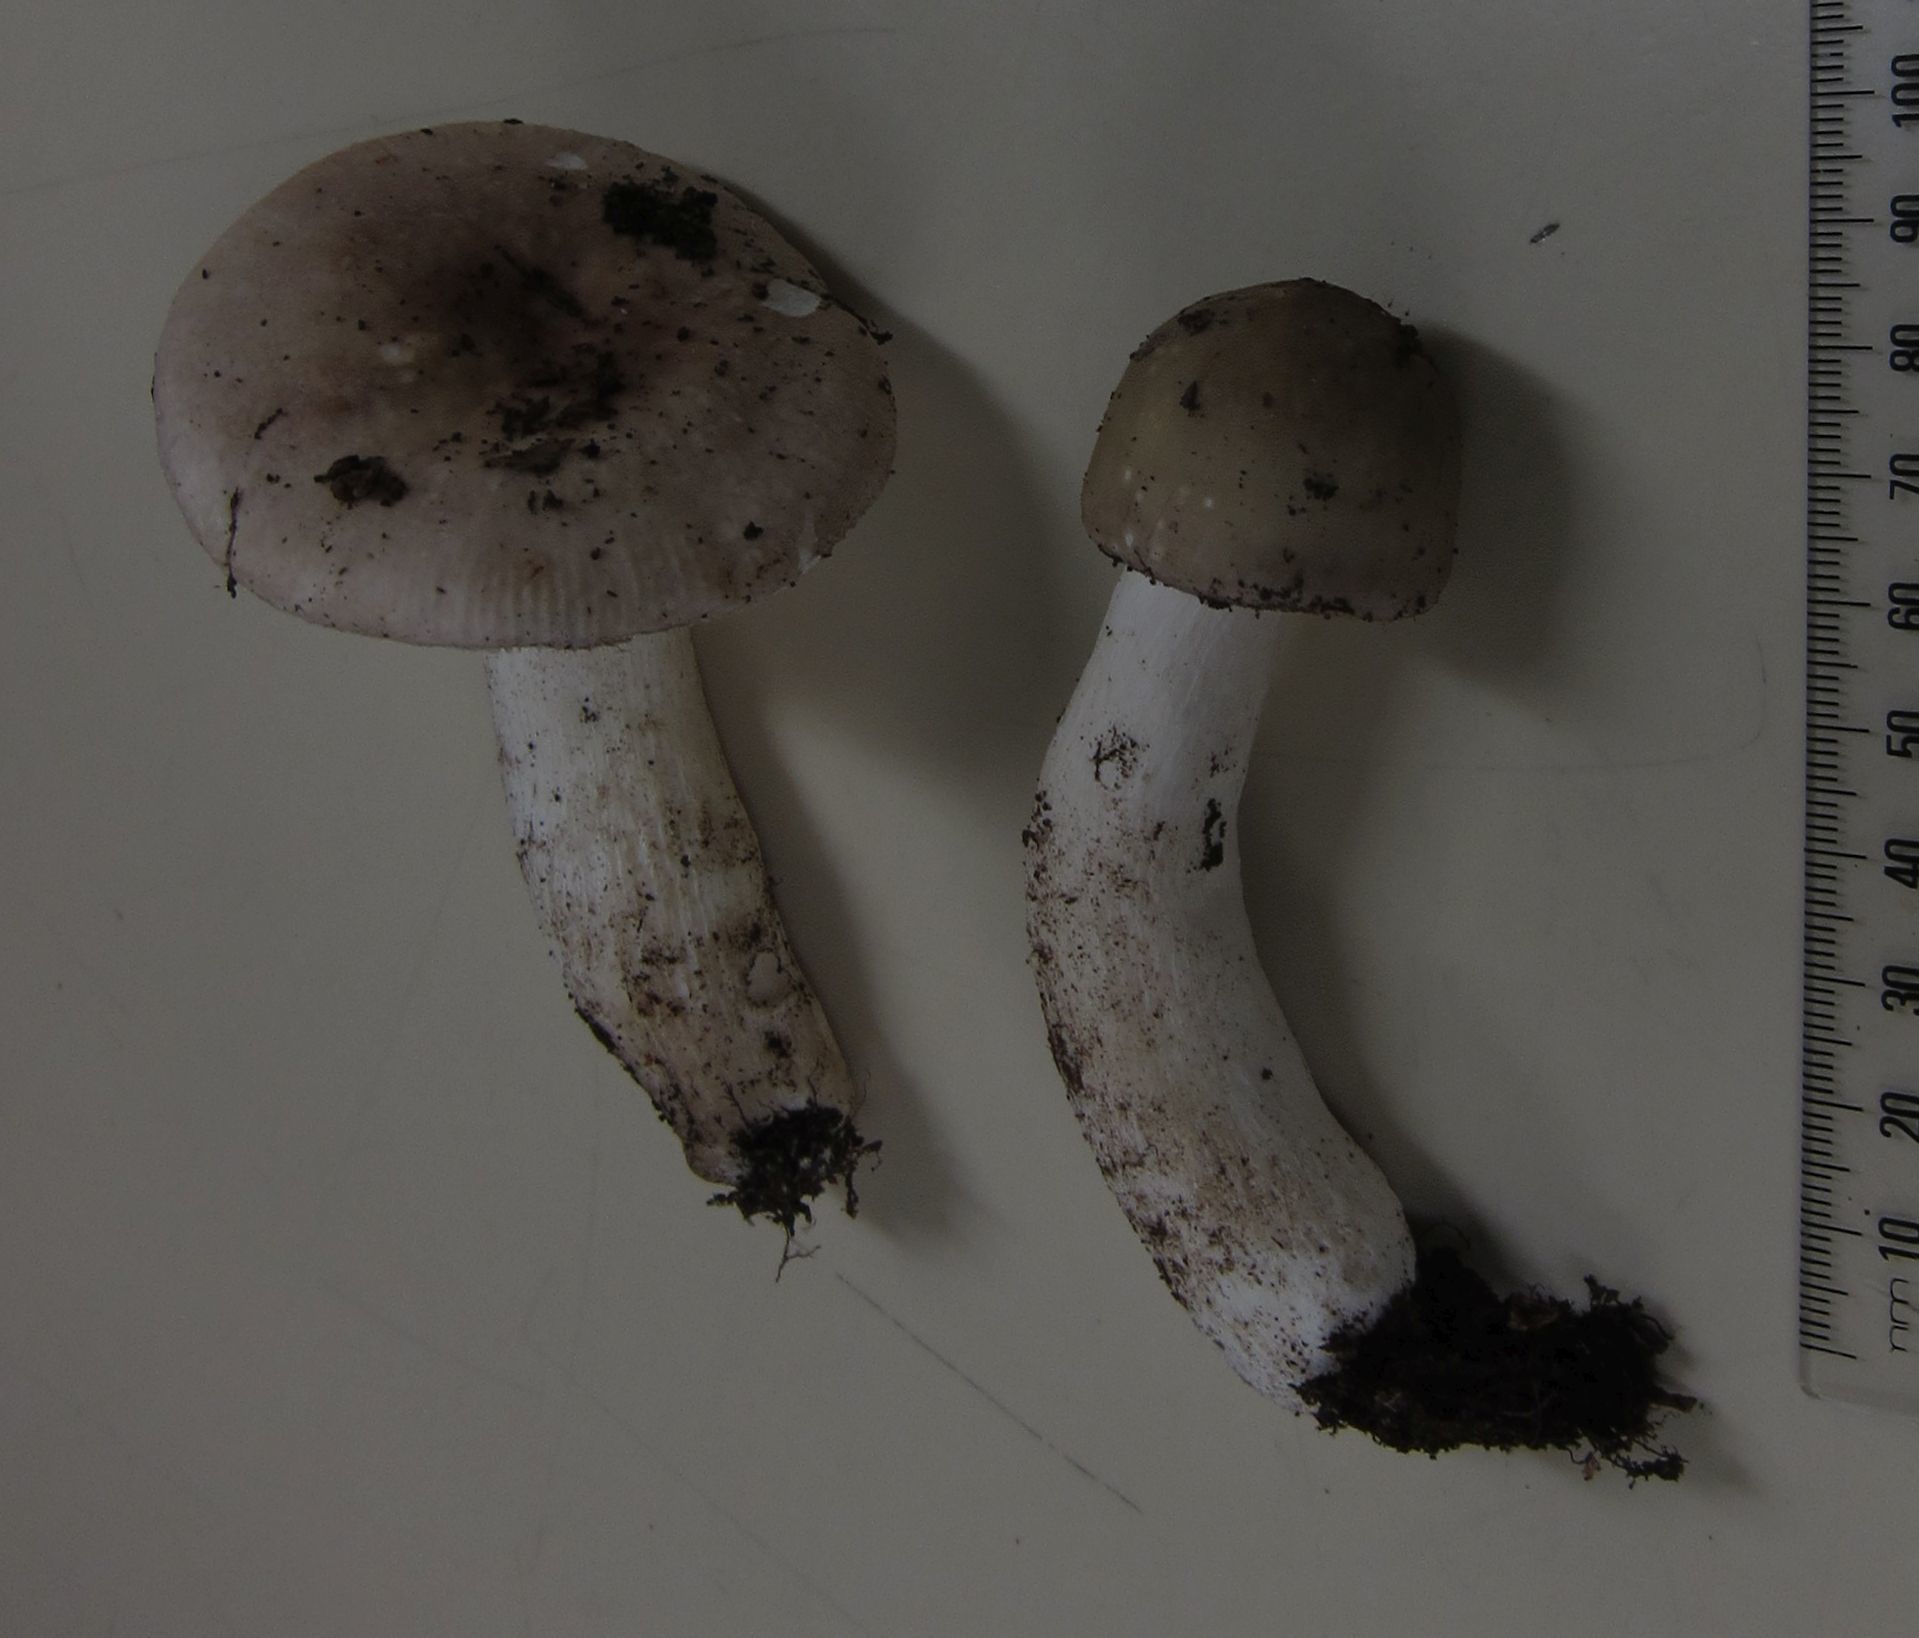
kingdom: Fungi
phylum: Basidiomycota
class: Agaricomycetes
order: Russulales
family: Russulaceae
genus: Russula
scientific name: Russula purpureotincta
